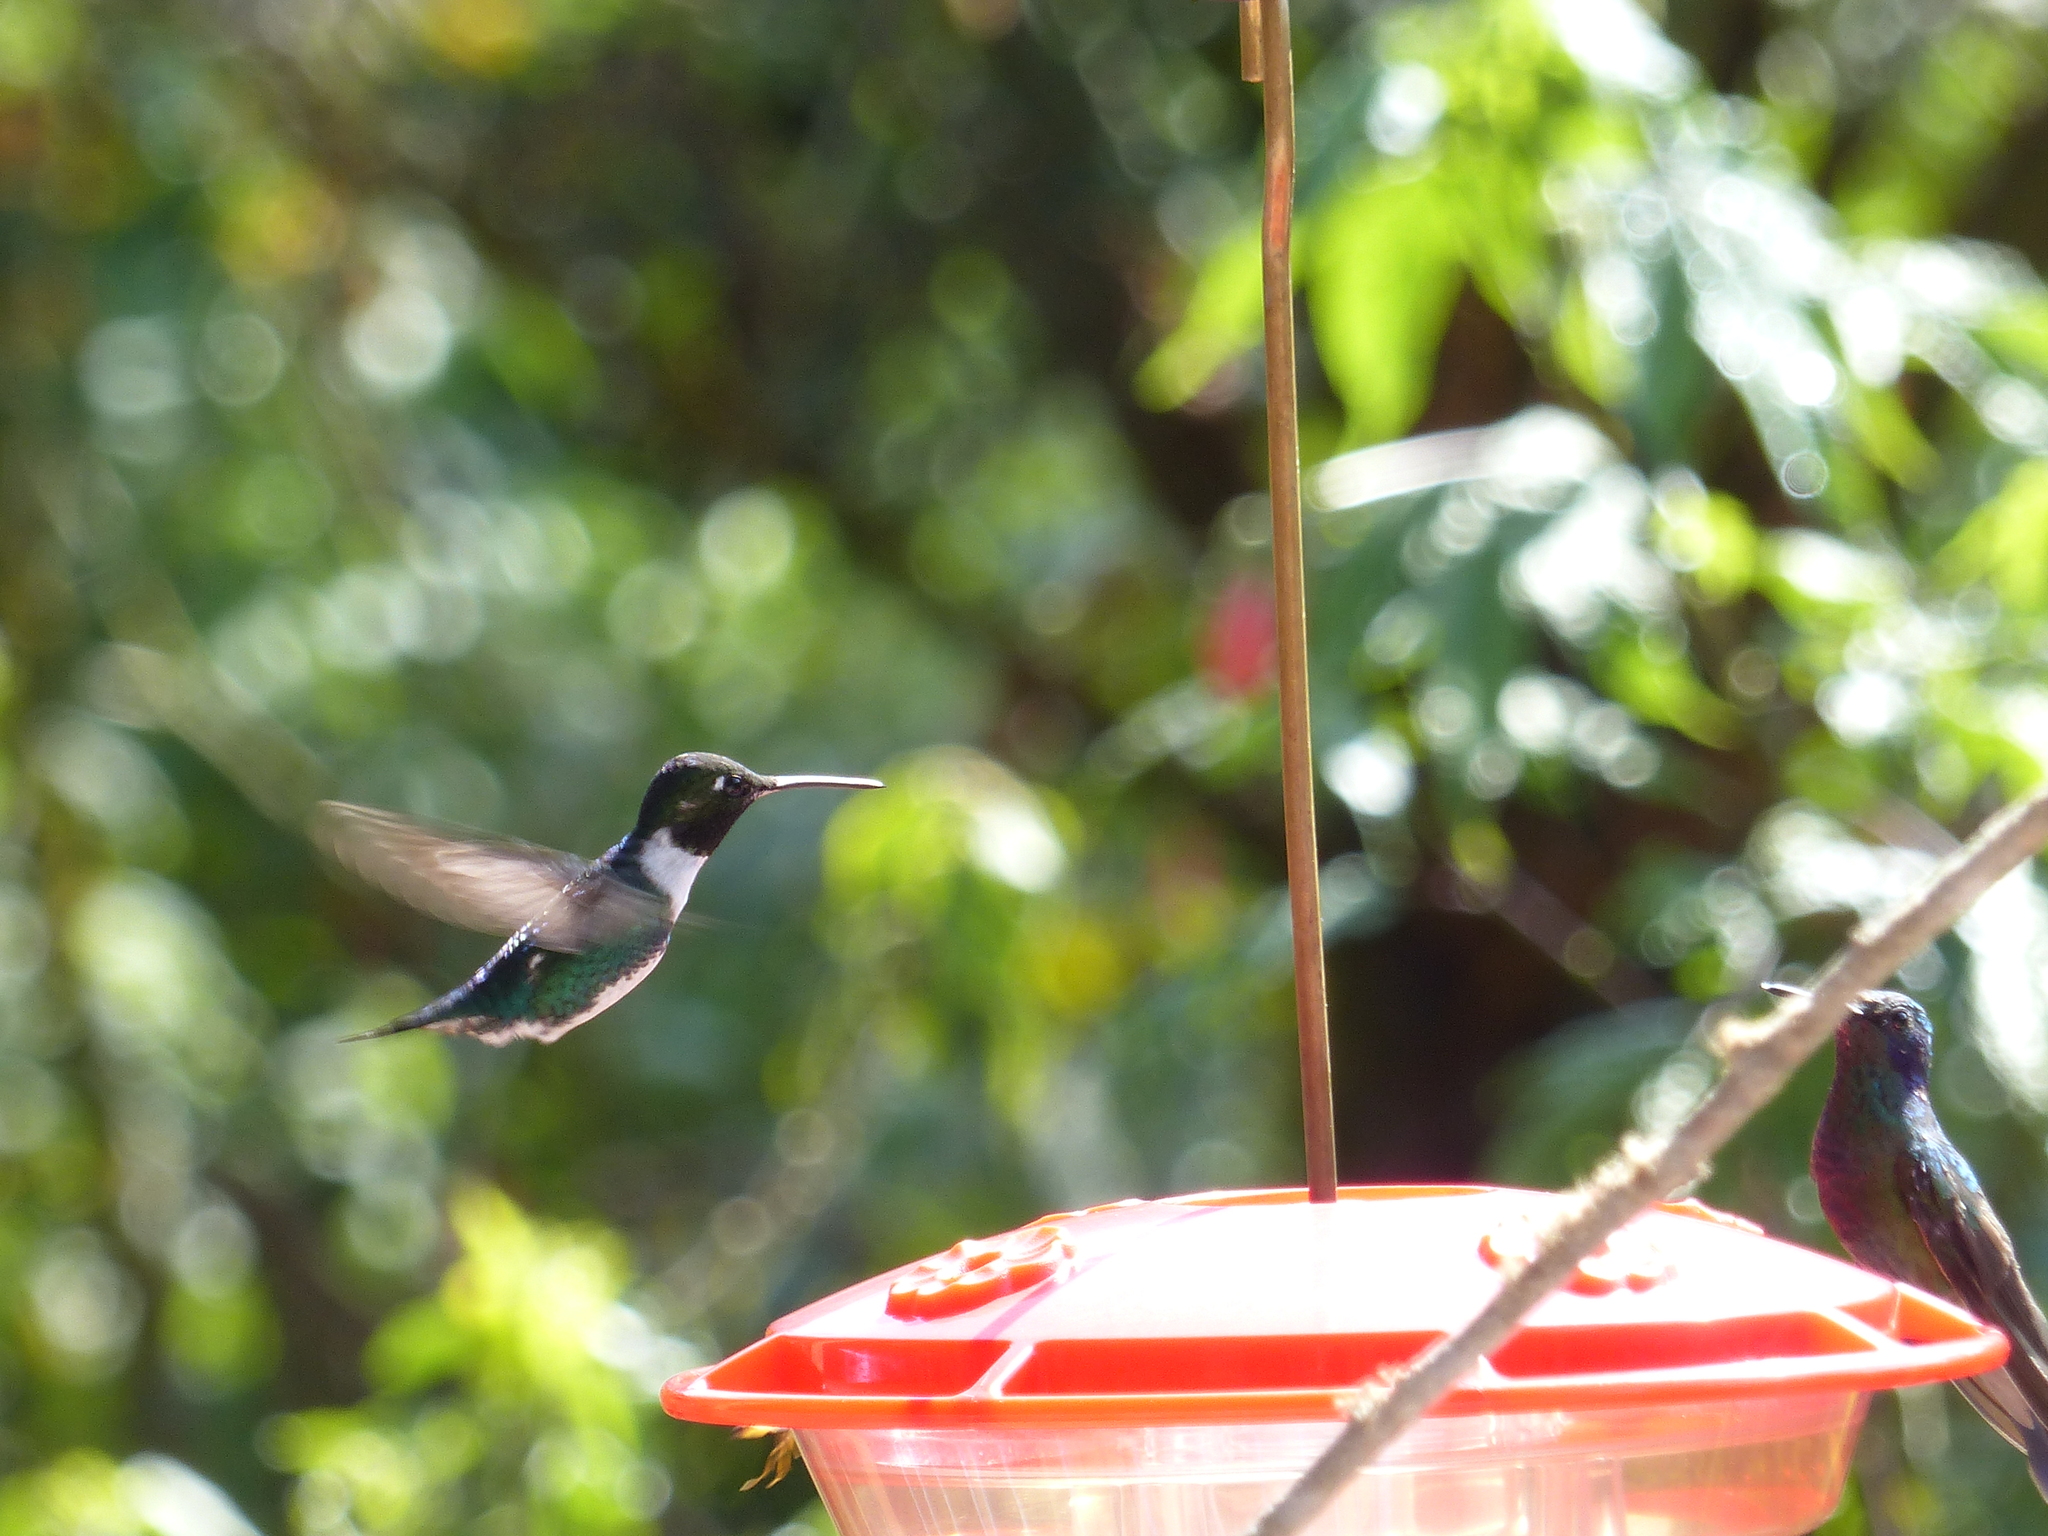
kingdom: Animalia
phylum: Chordata
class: Aves
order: Apodiformes
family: Trochilidae
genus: Chaetocercus
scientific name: Chaetocercus mulsant
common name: White-bellied woodstar
